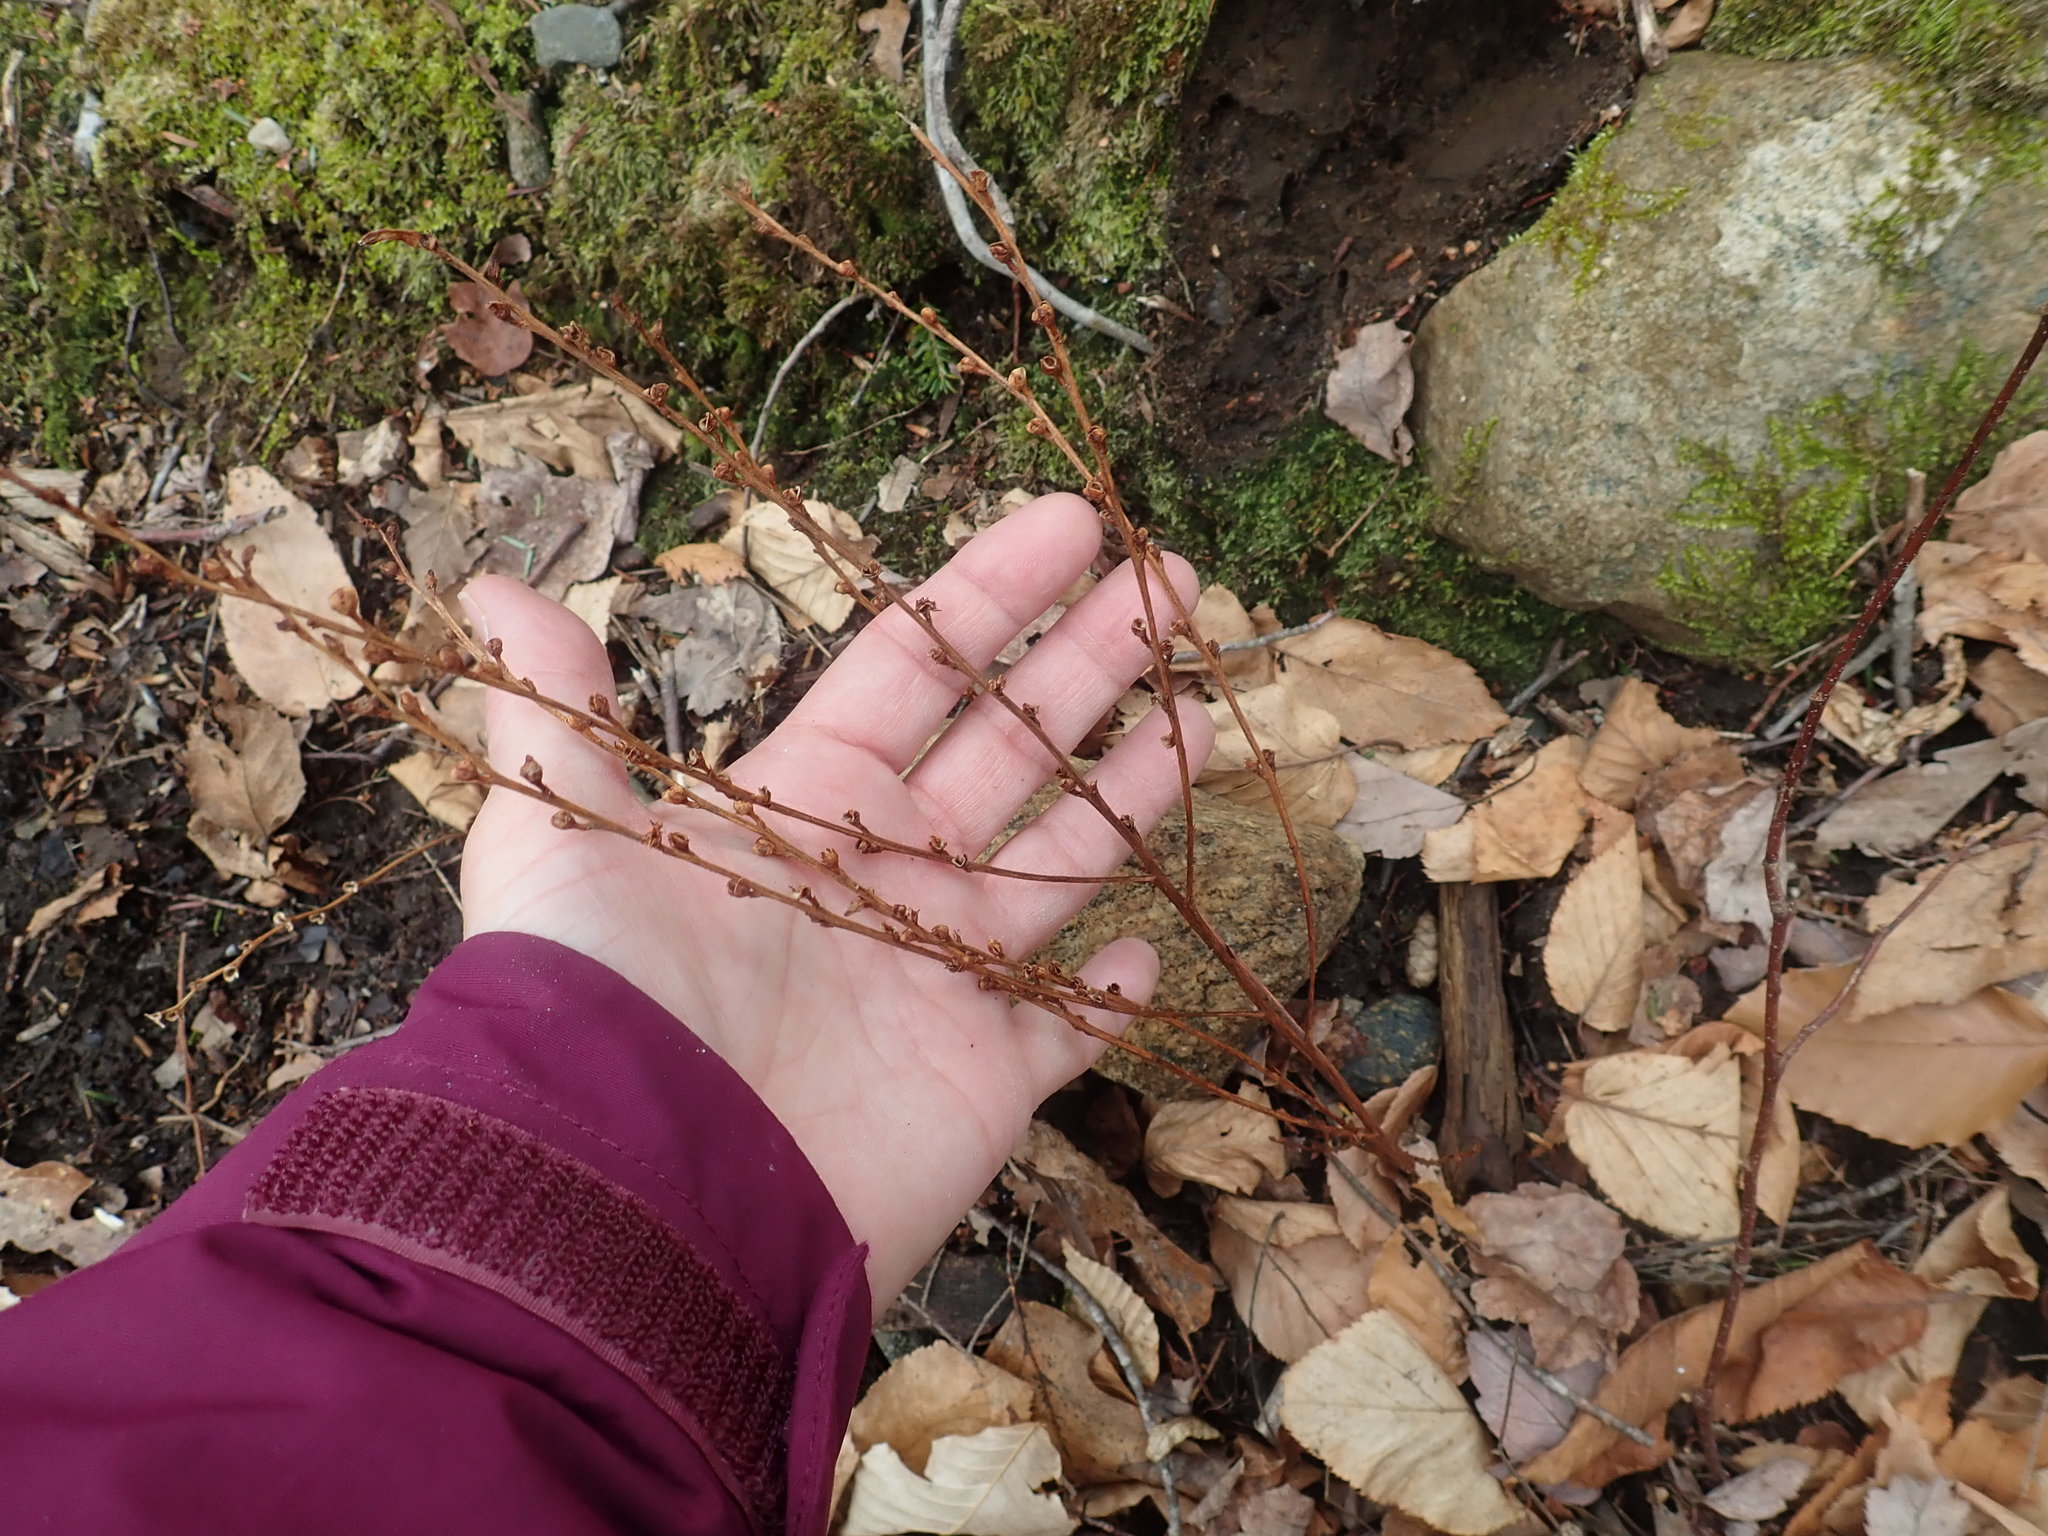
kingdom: Plantae
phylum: Tracheophyta
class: Magnoliopsida
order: Lamiales
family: Orobanchaceae
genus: Epifagus
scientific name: Epifagus virginiana
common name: Beechdrops
